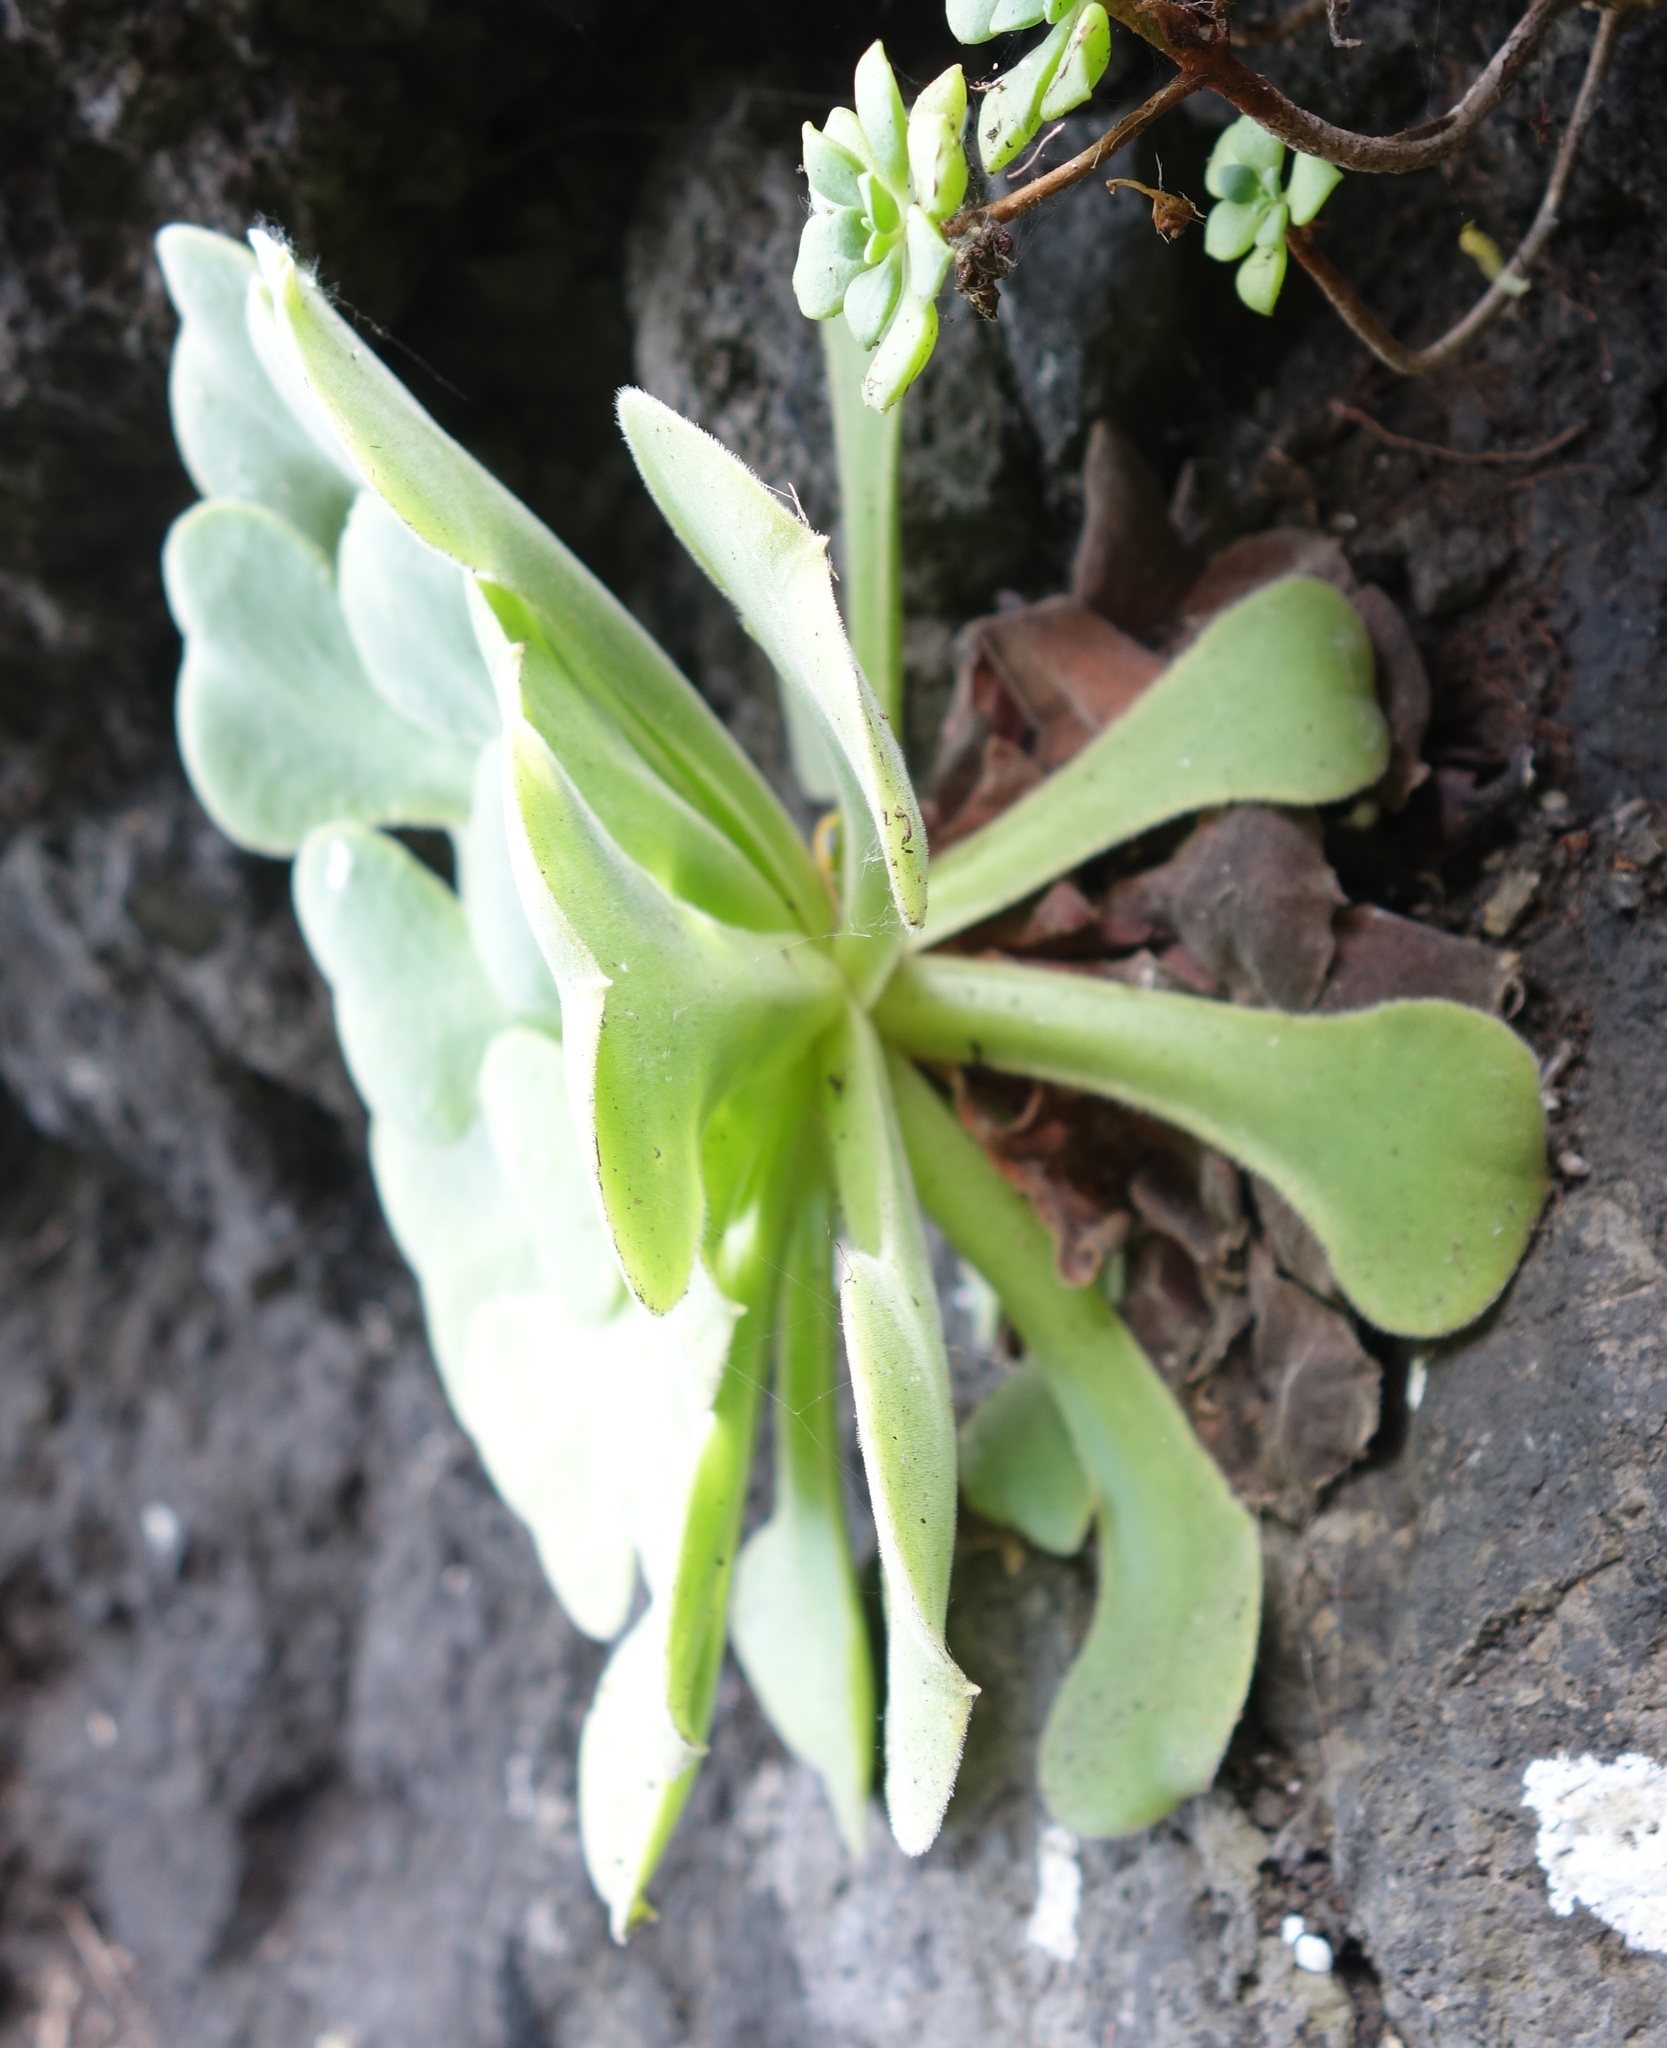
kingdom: Plantae
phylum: Tracheophyta
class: Magnoliopsida
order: Saxifragales
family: Crassulaceae
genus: Aeonium
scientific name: Aeonium canariense
